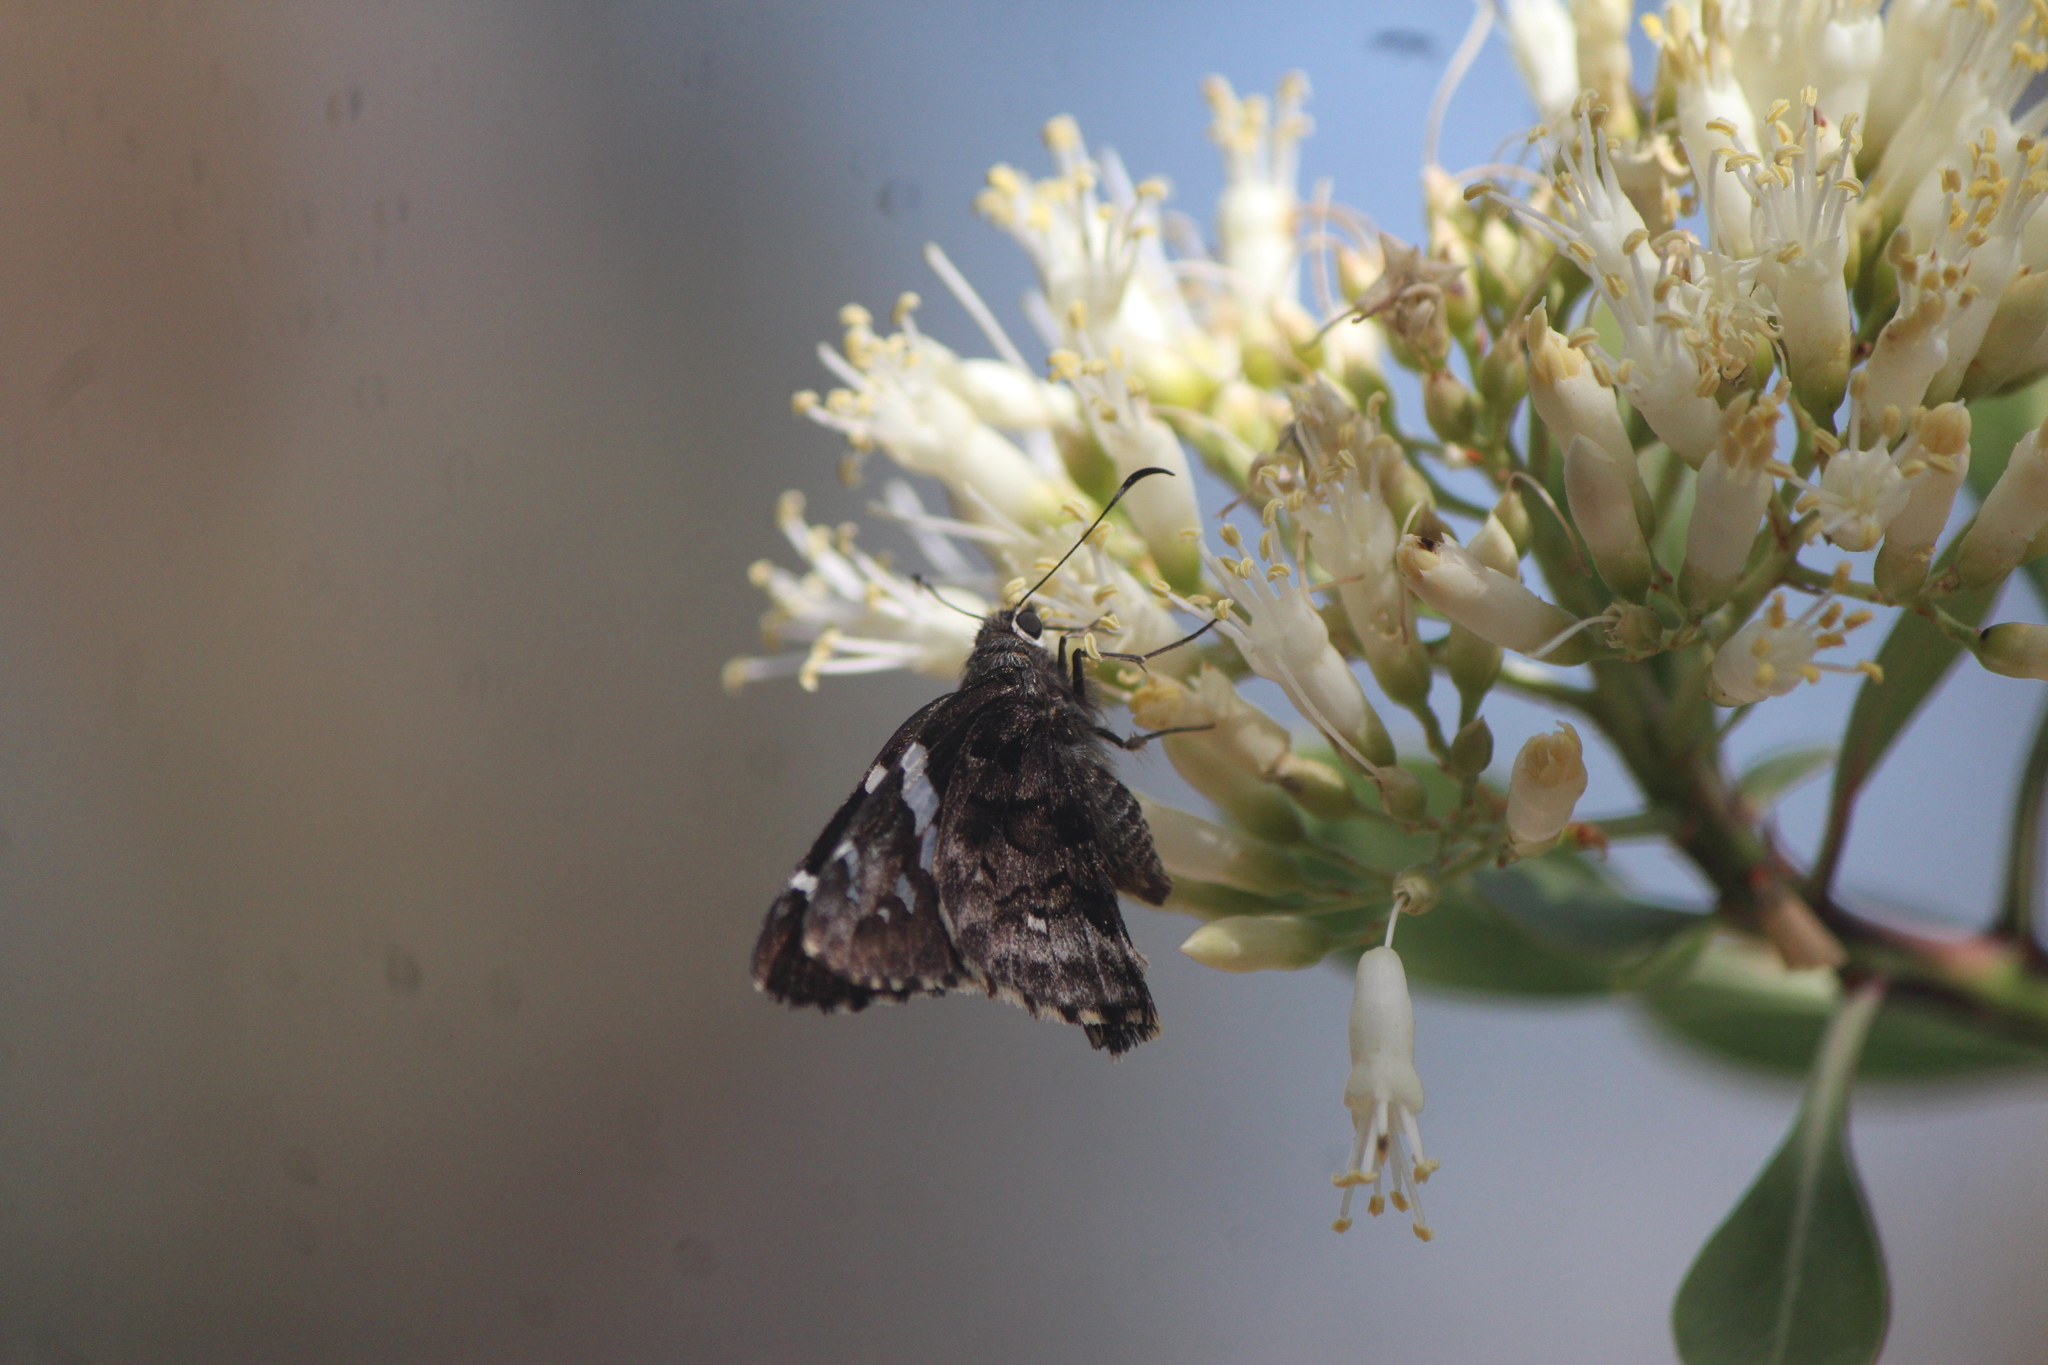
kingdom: Animalia
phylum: Arthropoda
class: Insecta
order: Lepidoptera
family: Hesperiidae
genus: Codatractus
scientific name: Codatractus arizonensis
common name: Arizona skipper
